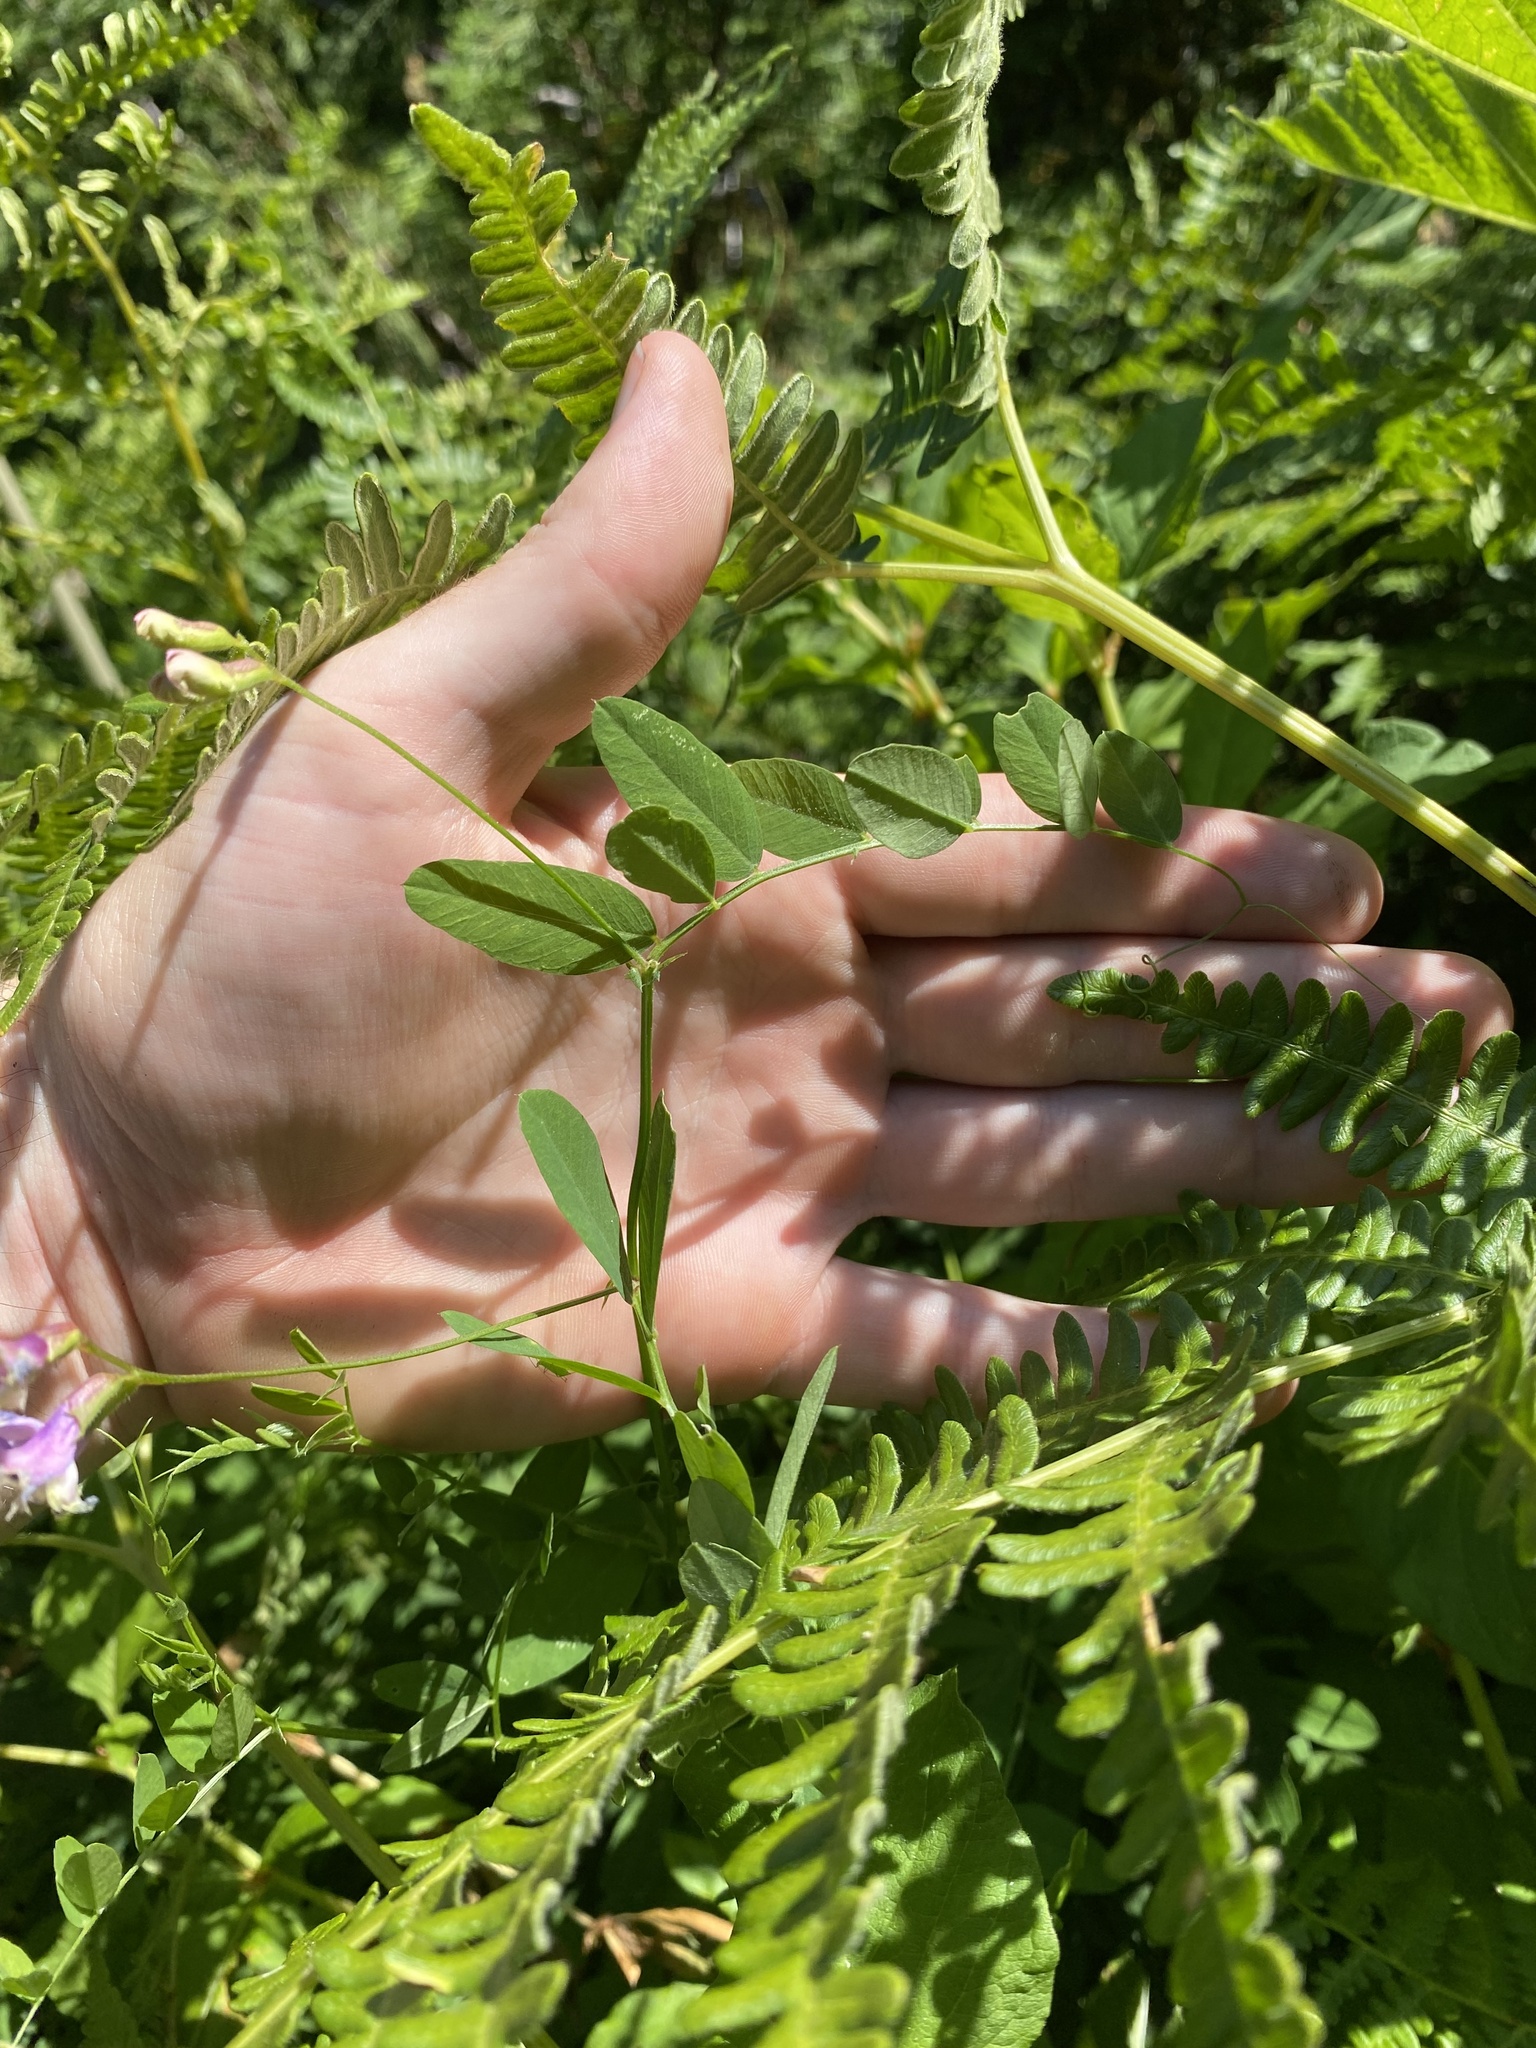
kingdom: Plantae
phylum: Tracheophyta
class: Magnoliopsida
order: Fabales
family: Fabaceae
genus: Vicia
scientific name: Vicia americana
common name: American vetch
